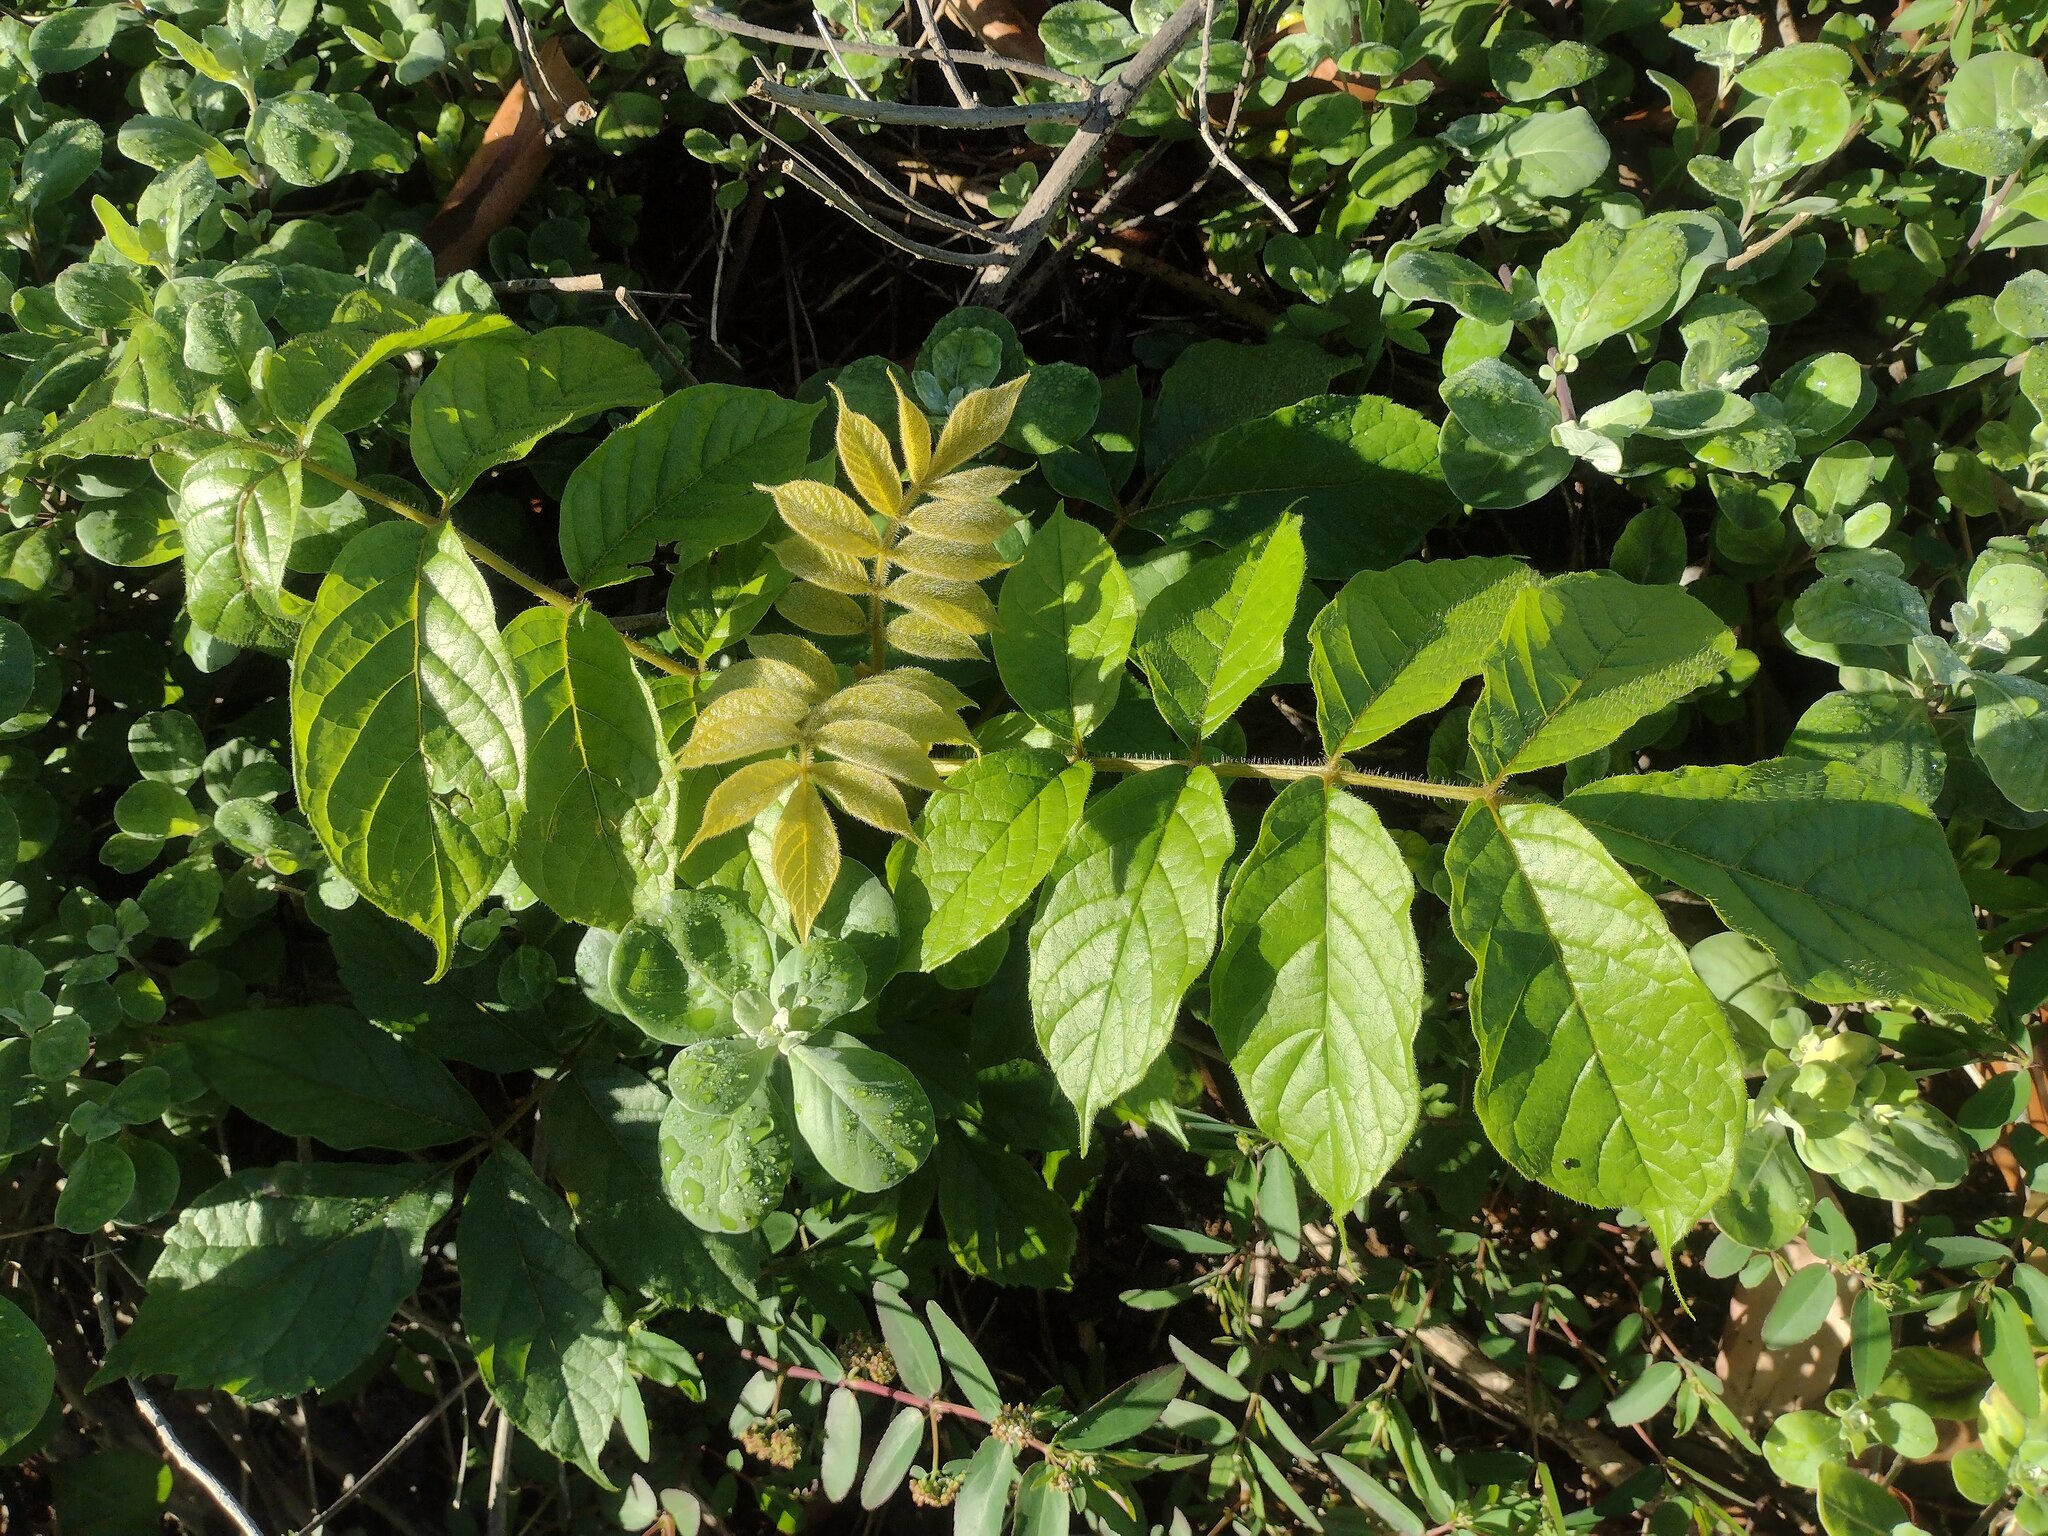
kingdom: Plantae
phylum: Tracheophyta
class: Magnoliopsida
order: Lamiales
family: Bignoniaceae
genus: Spathodea
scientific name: Spathodea campanulata
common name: African tuliptree
